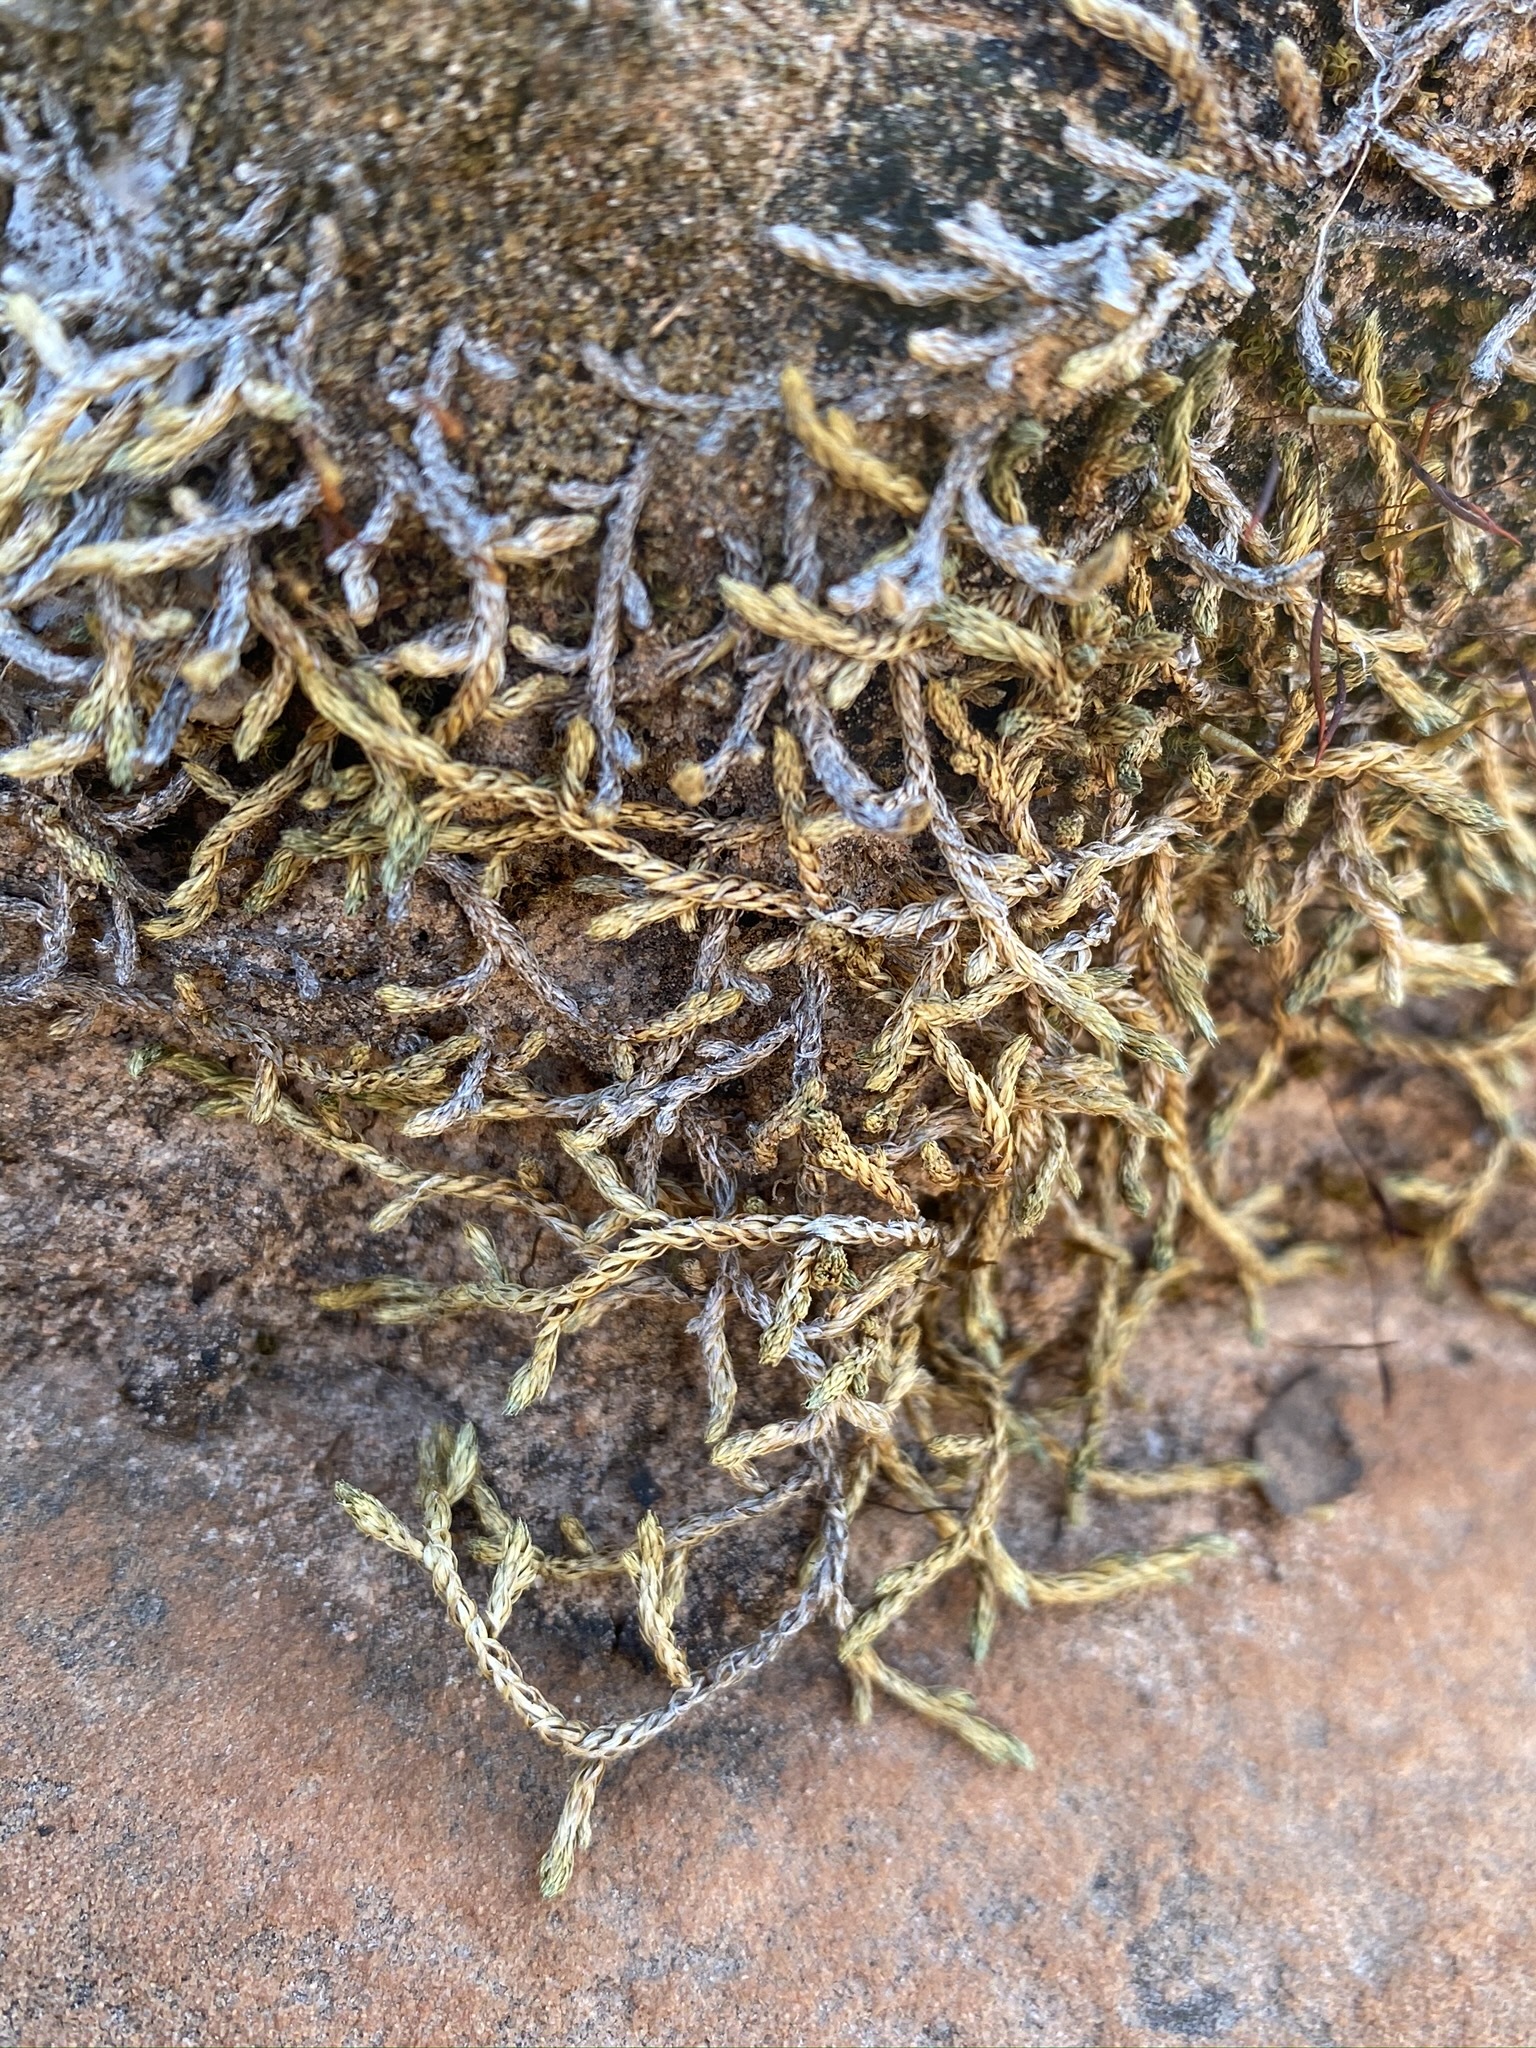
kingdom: Plantae
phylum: Tracheophyta
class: Lycopodiopsida
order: Selaginellales
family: Selaginellaceae
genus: Selaginella
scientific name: Selaginella underwoodii
